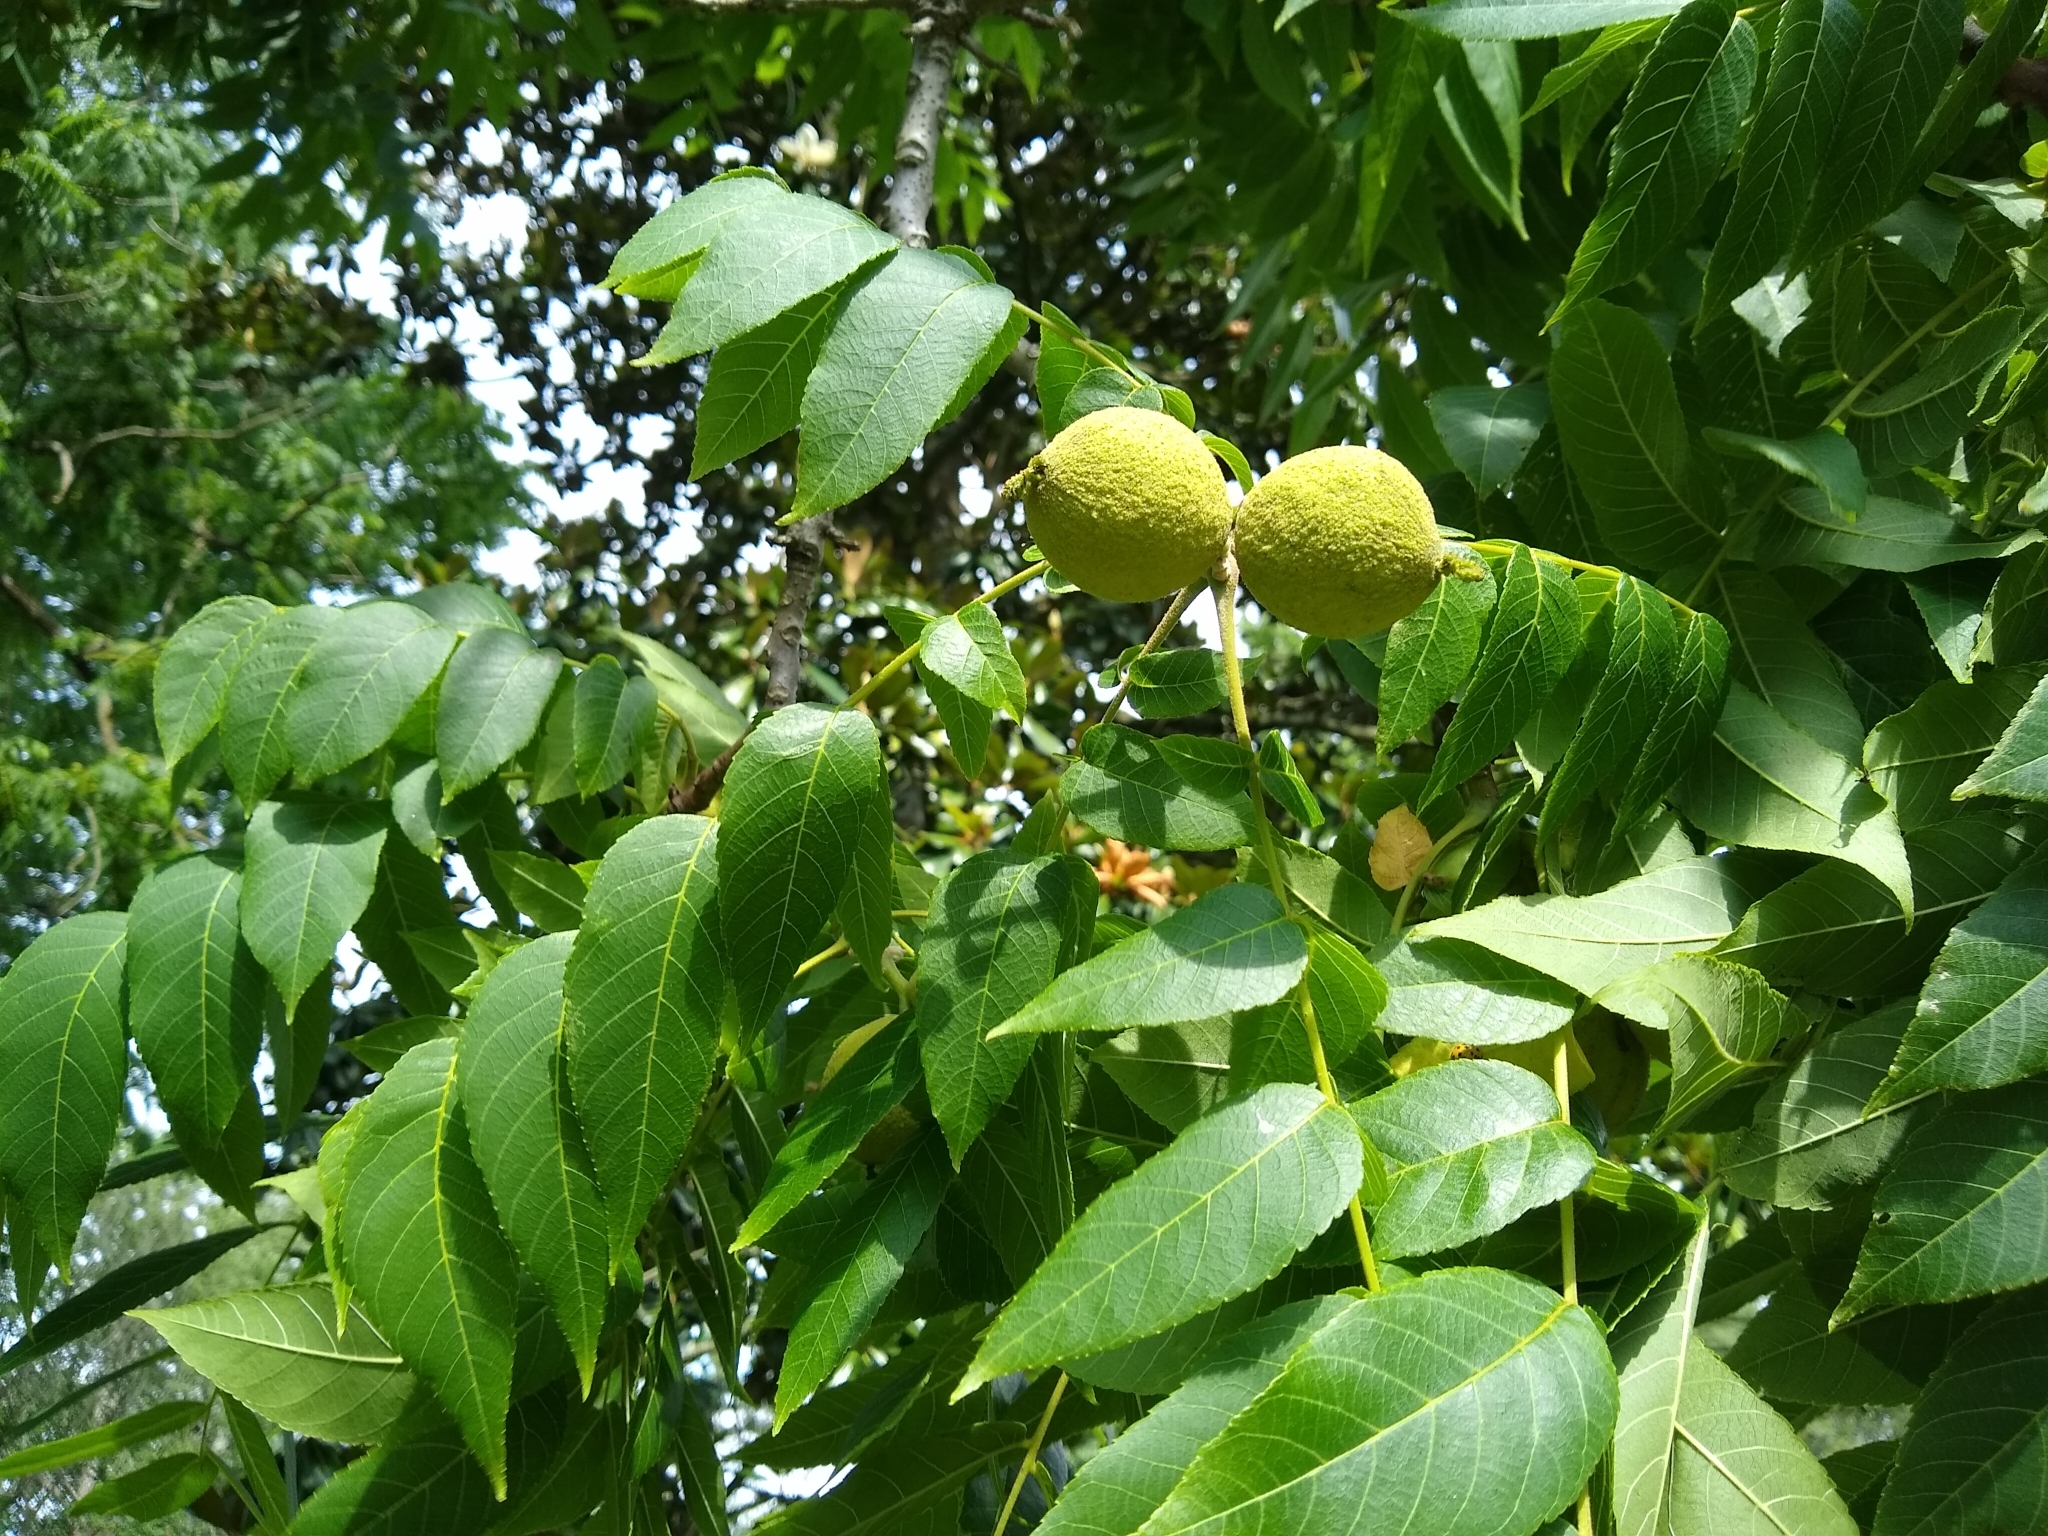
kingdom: Plantae
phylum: Tracheophyta
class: Magnoliopsida
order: Fagales
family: Juglandaceae
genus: Juglans
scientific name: Juglans nigra
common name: Black walnut
